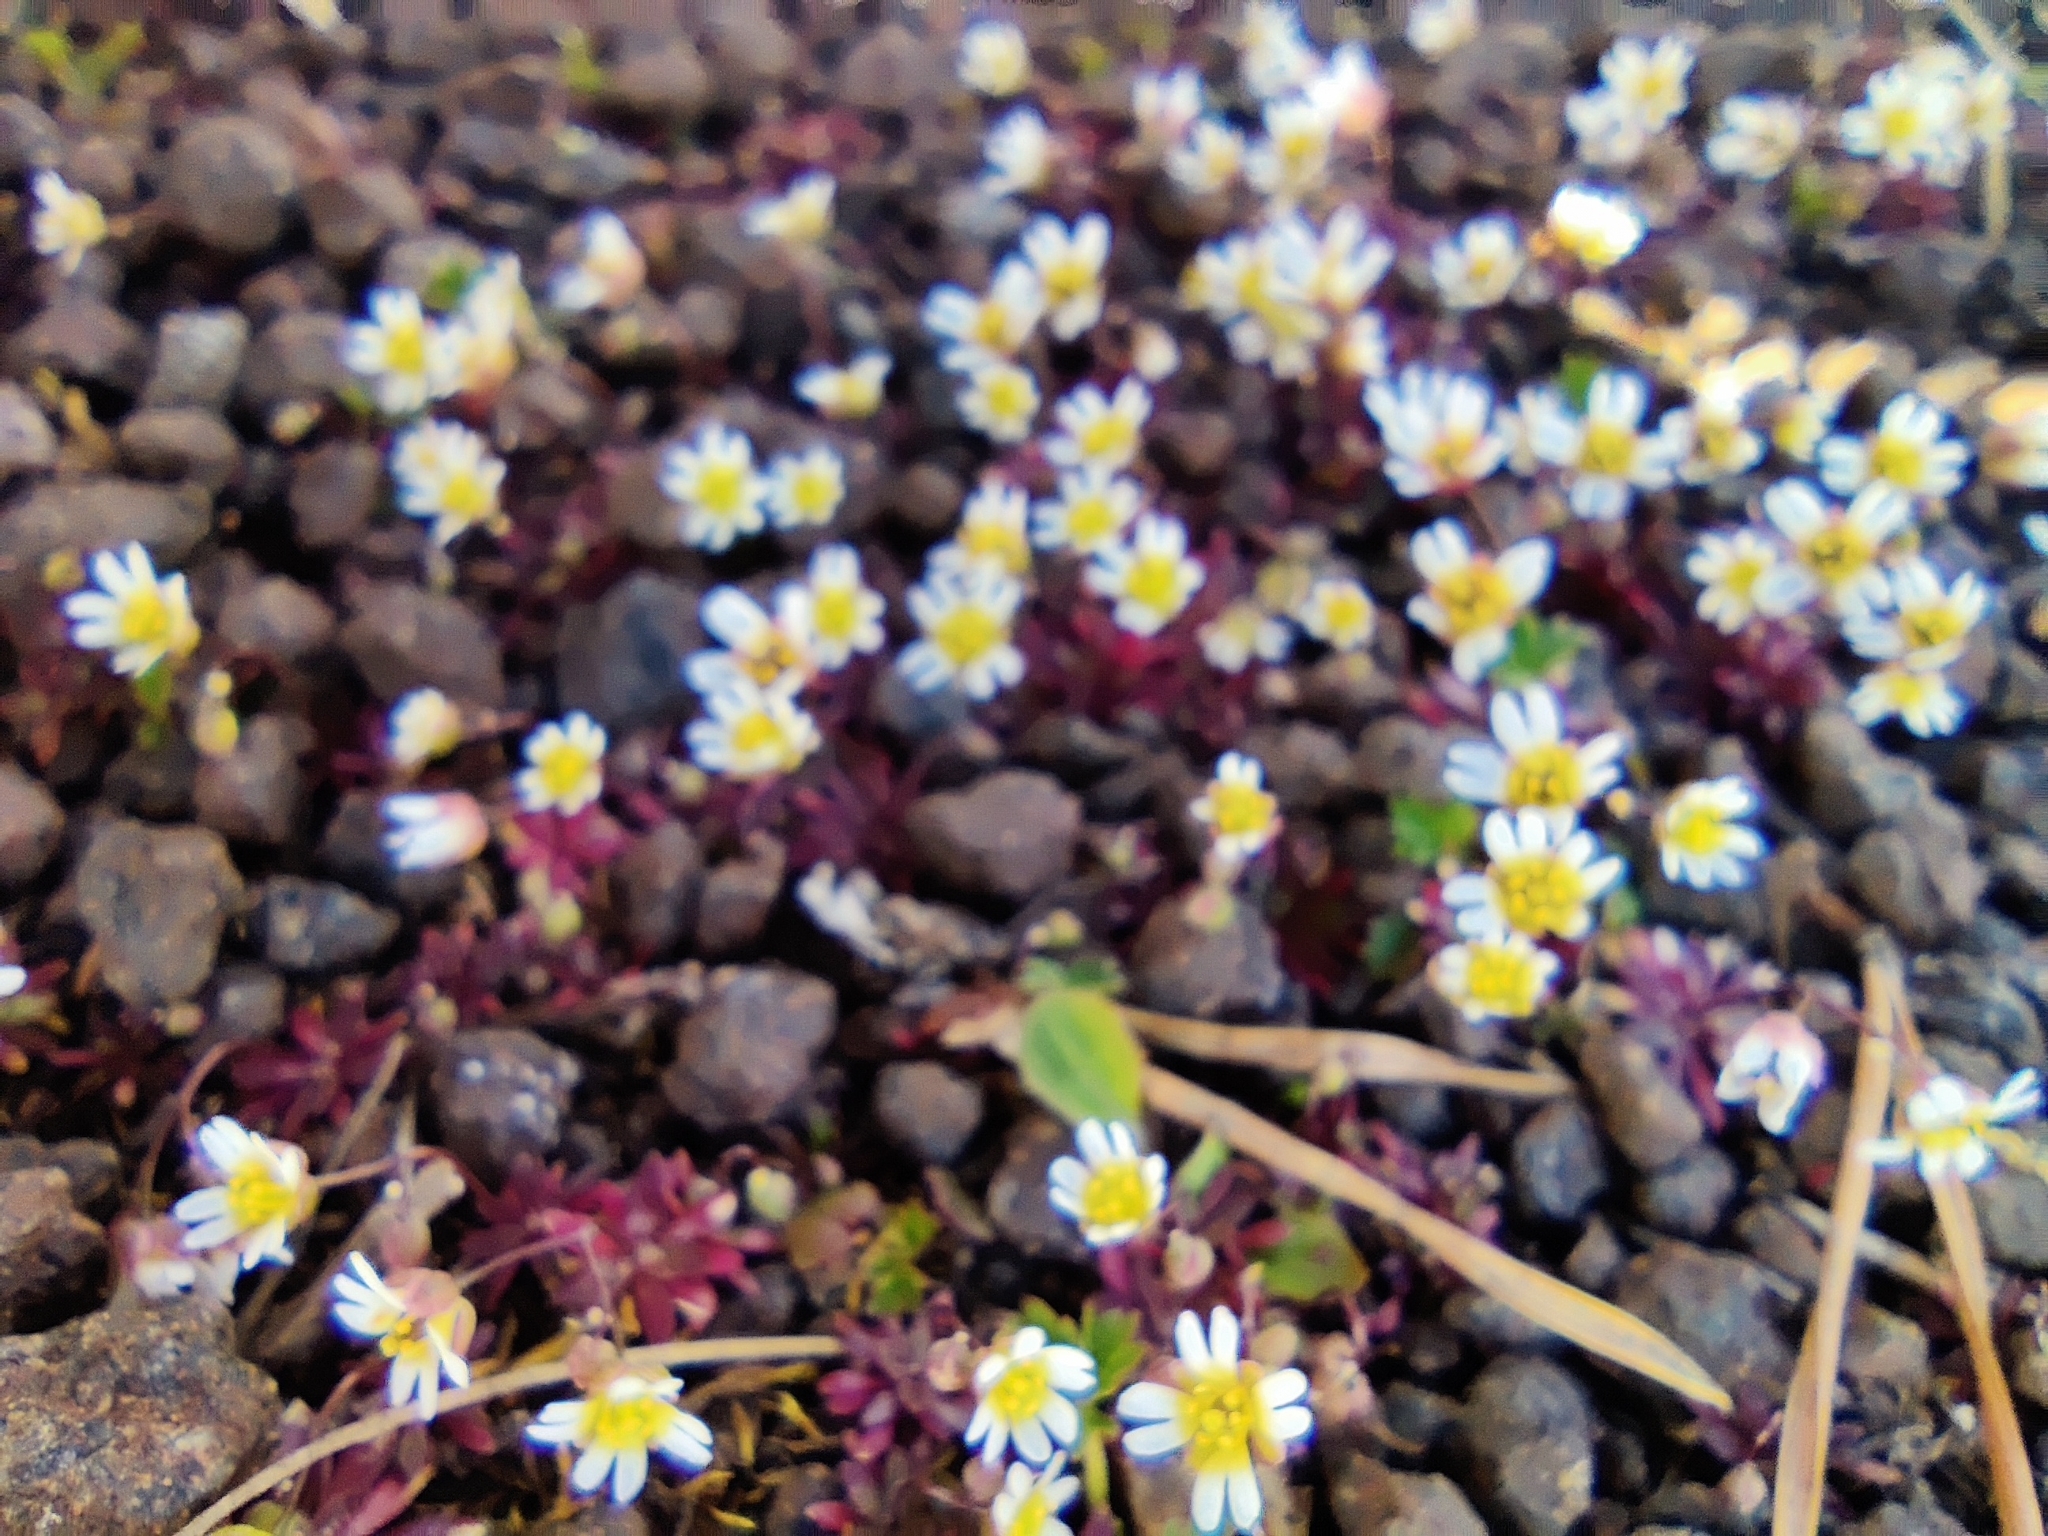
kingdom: Plantae
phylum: Tracheophyta
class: Magnoliopsida
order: Brassicales
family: Brassicaceae
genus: Draba
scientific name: Draba verna
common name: Spring draba
